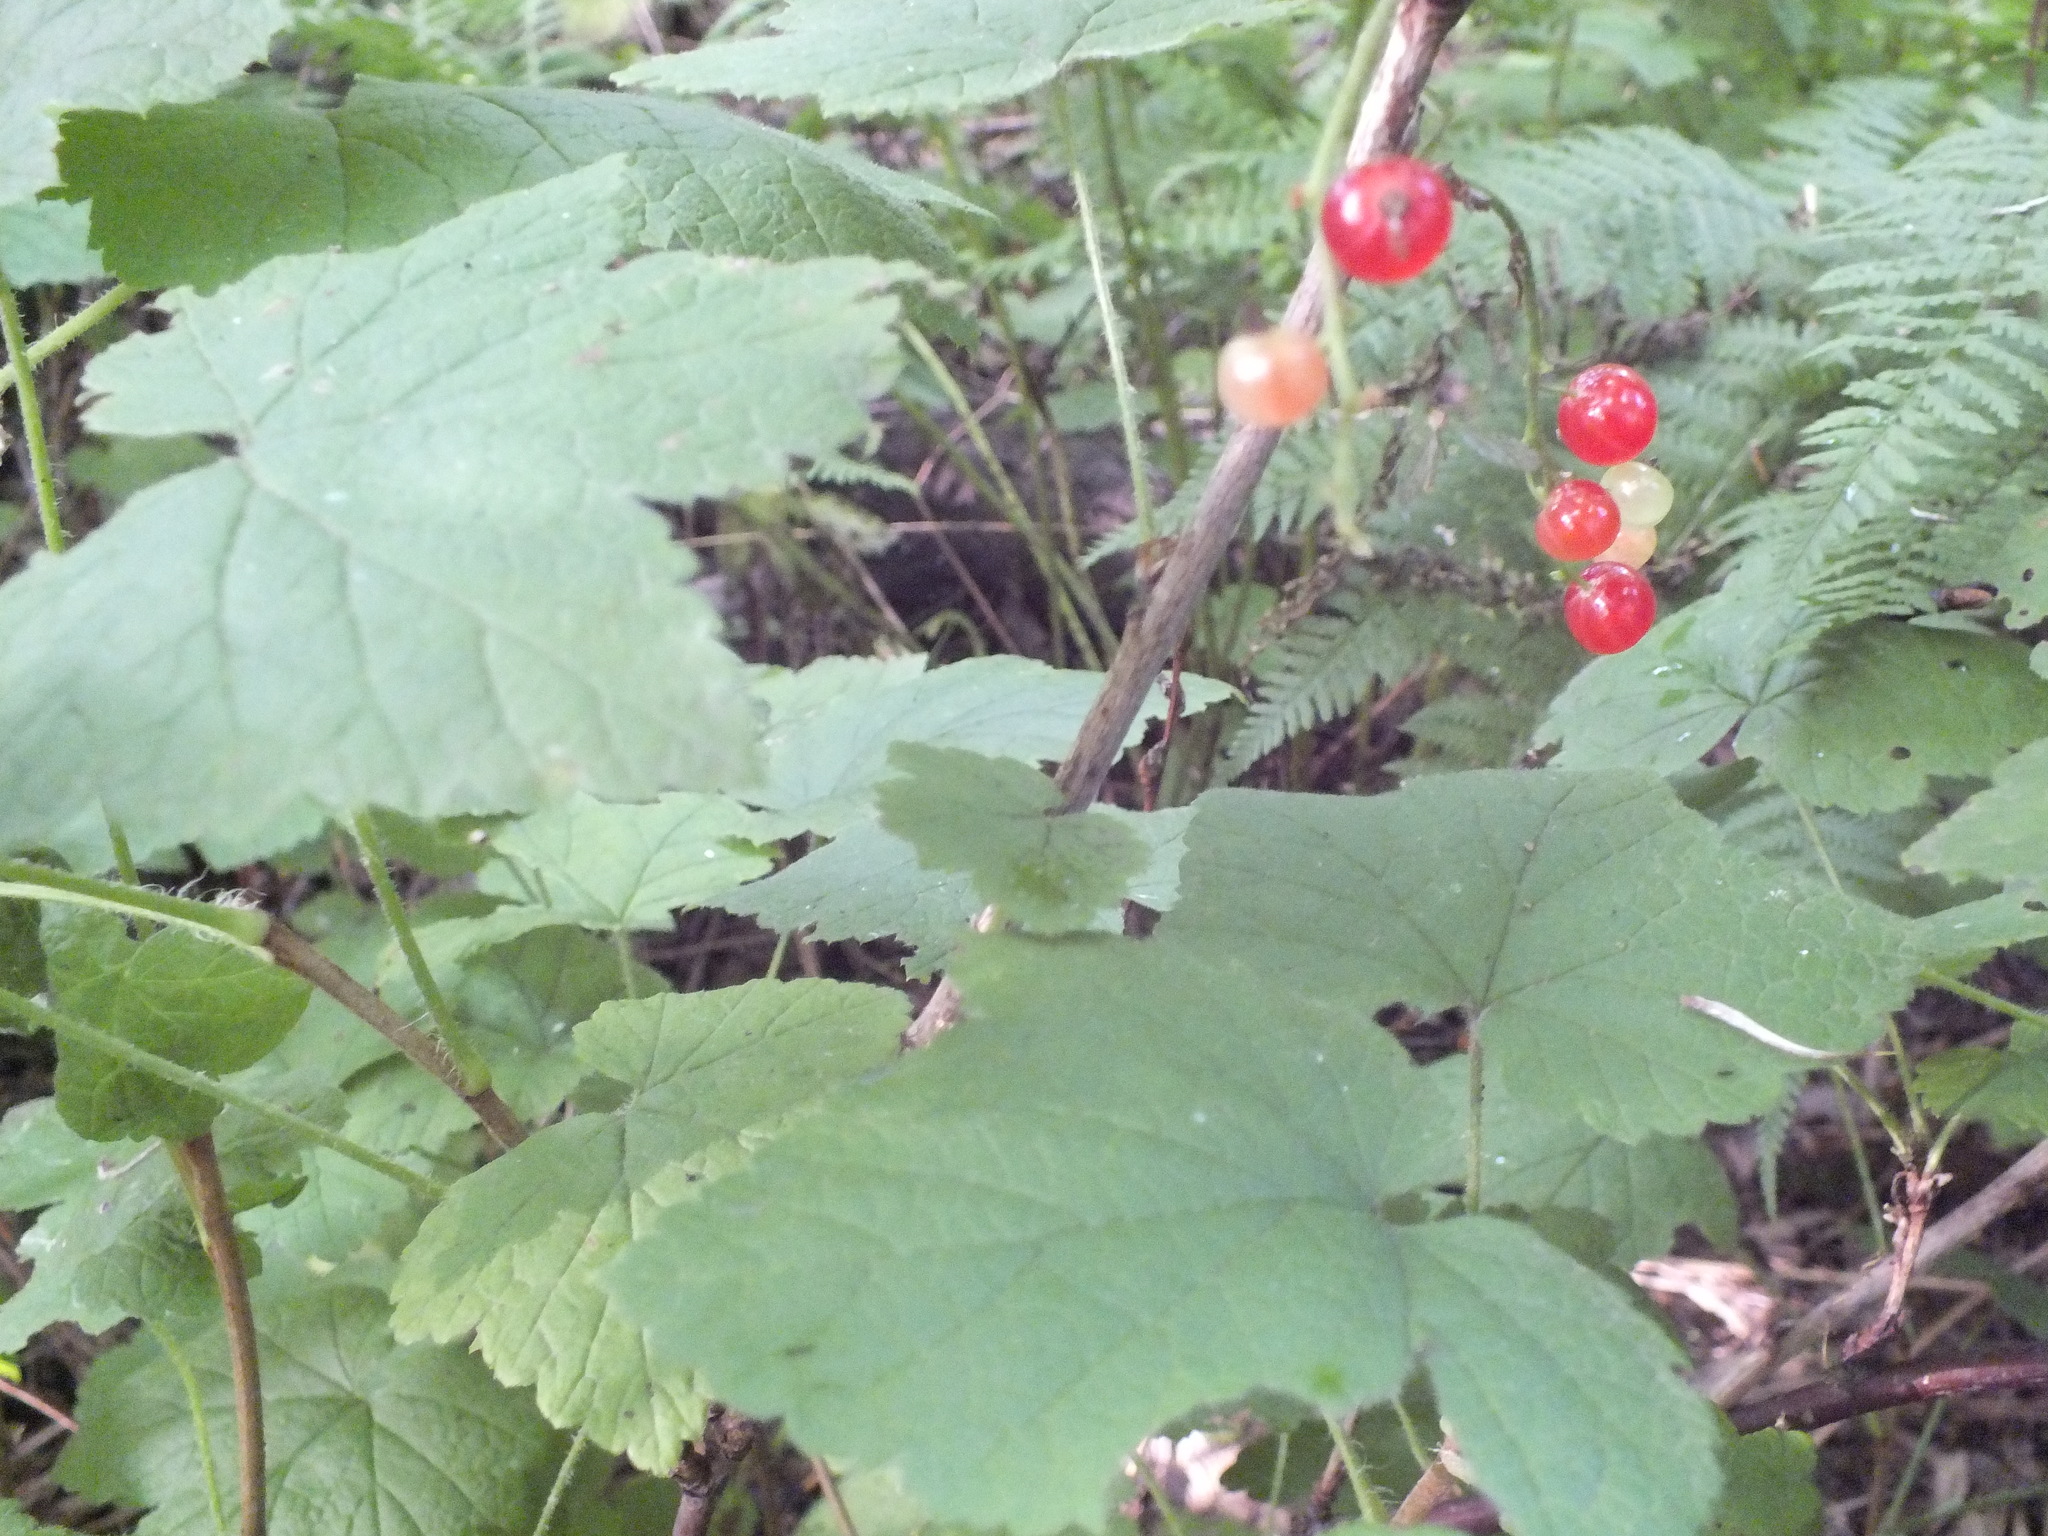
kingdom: Plantae
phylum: Tracheophyta
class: Magnoliopsida
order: Saxifragales
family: Grossulariaceae
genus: Ribes
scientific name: Ribes spicatum
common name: Downy currant
